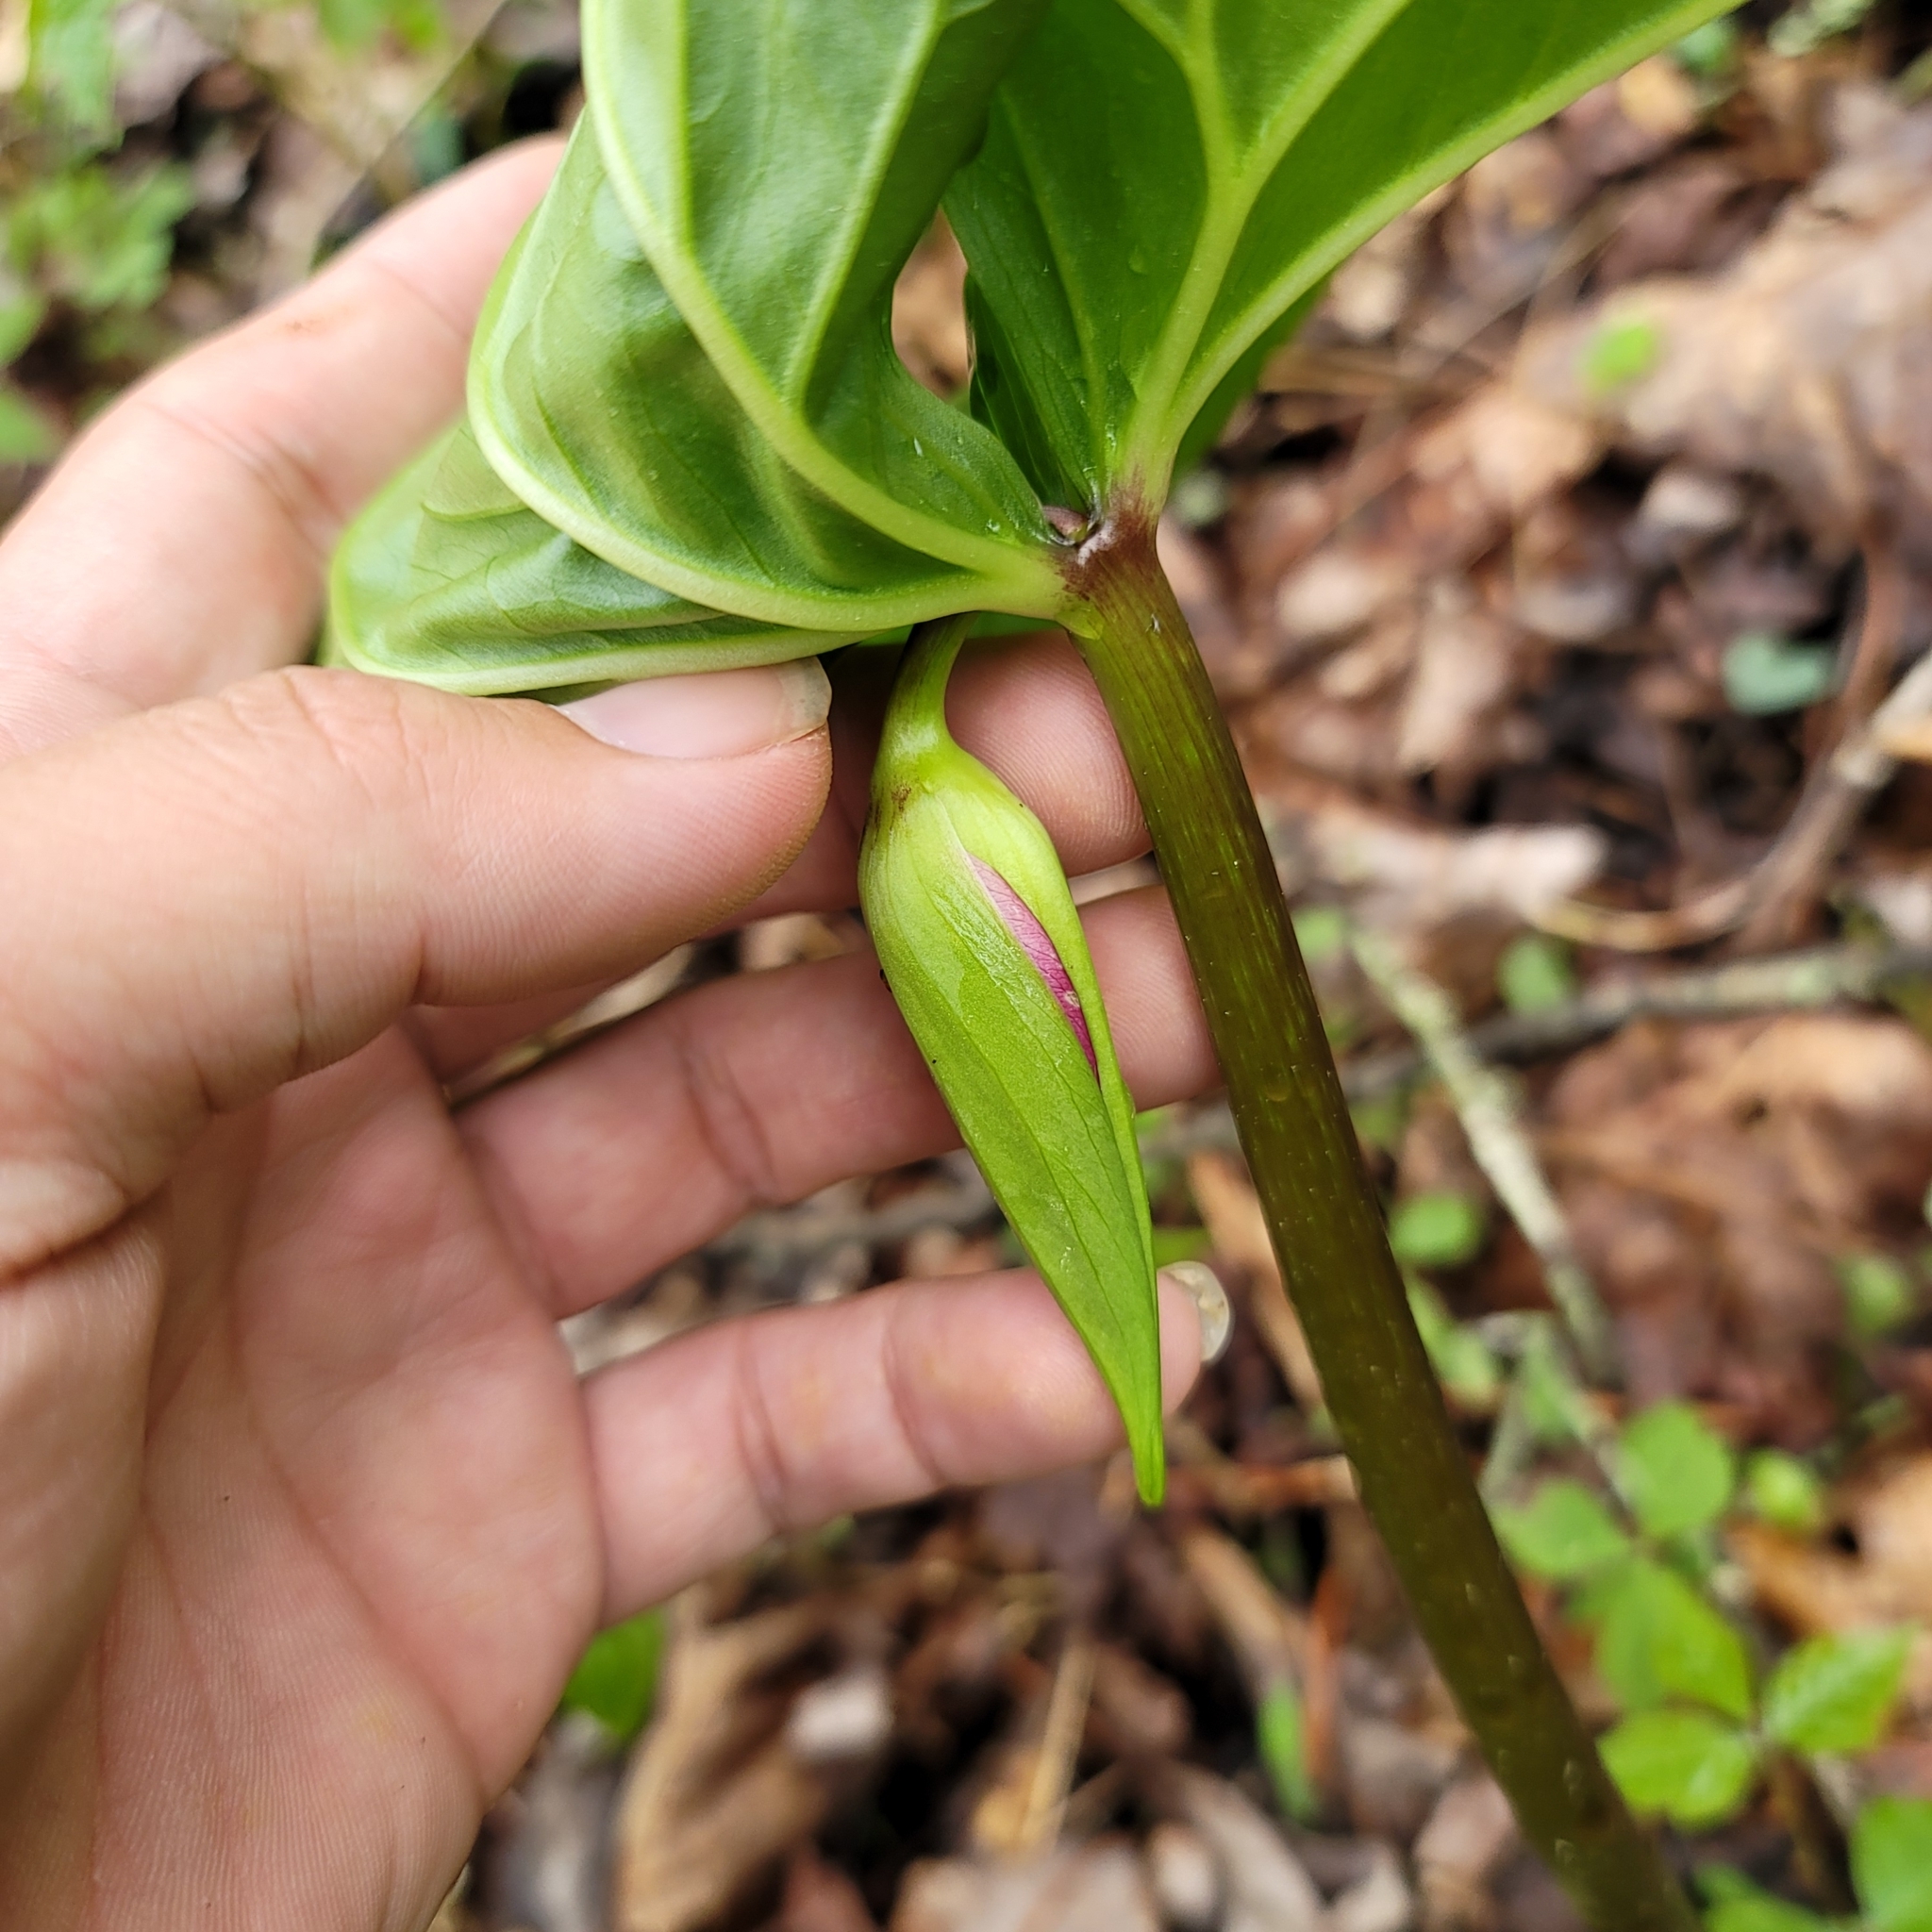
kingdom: Plantae
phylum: Tracheophyta
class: Liliopsida
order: Liliales
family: Melanthiaceae
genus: Trillium
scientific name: Trillium vaseyi
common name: Sweet trillium
